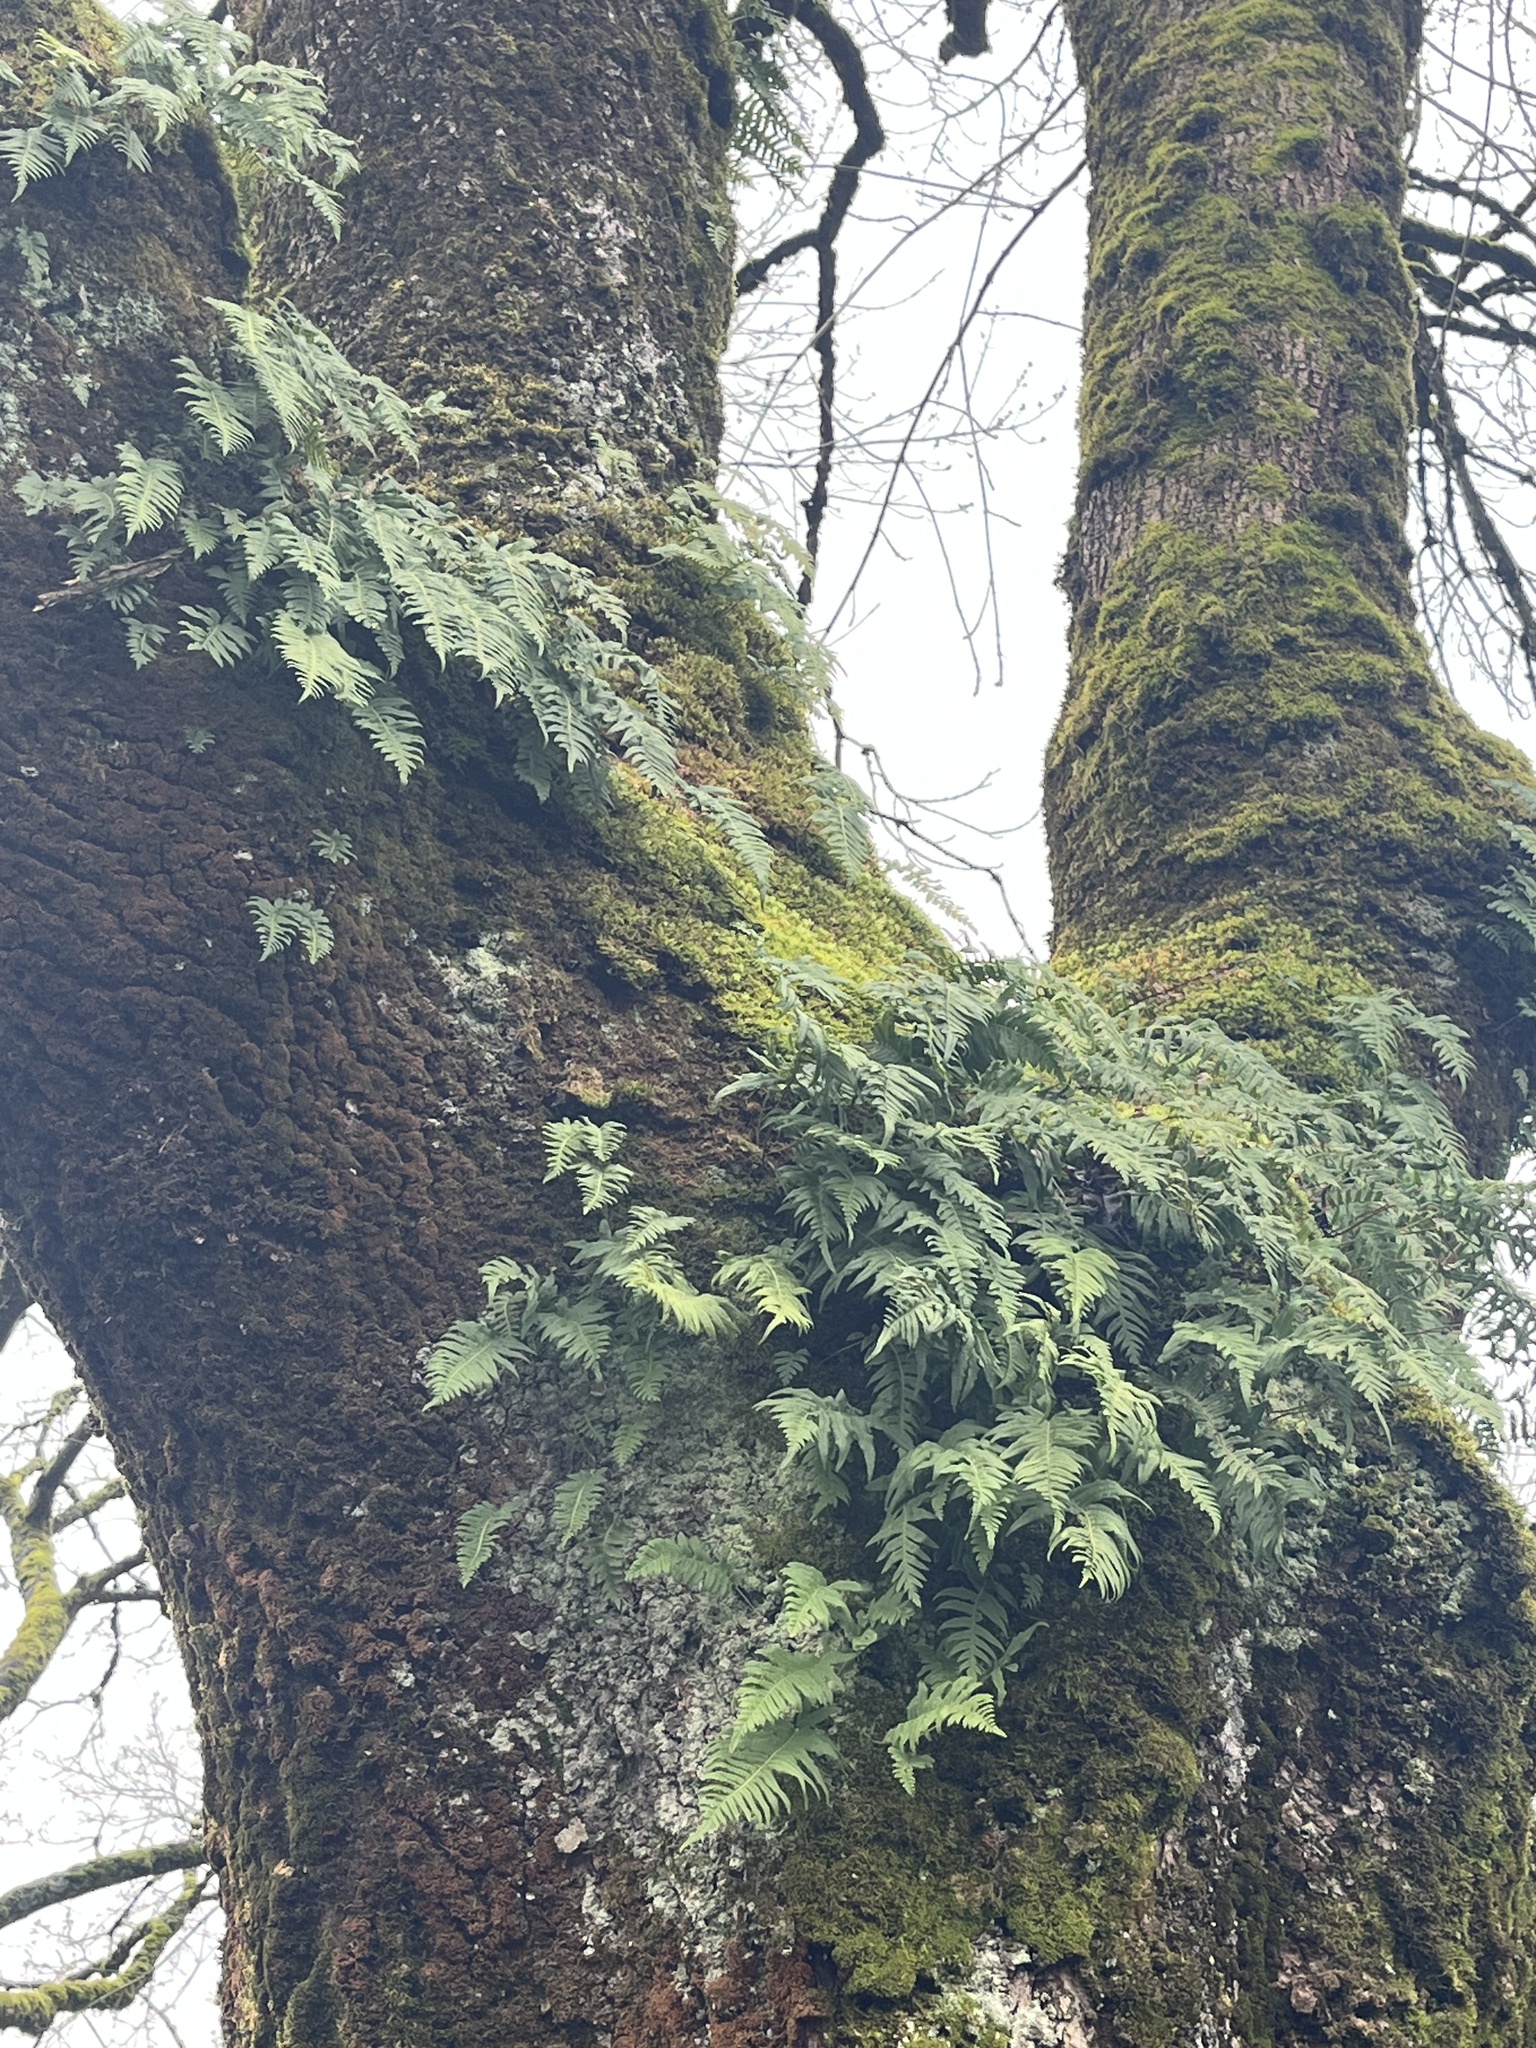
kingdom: Plantae
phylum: Tracheophyta
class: Polypodiopsida
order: Polypodiales
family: Polypodiaceae
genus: Polypodium
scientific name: Polypodium glycyrrhiza
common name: Licorice fern
